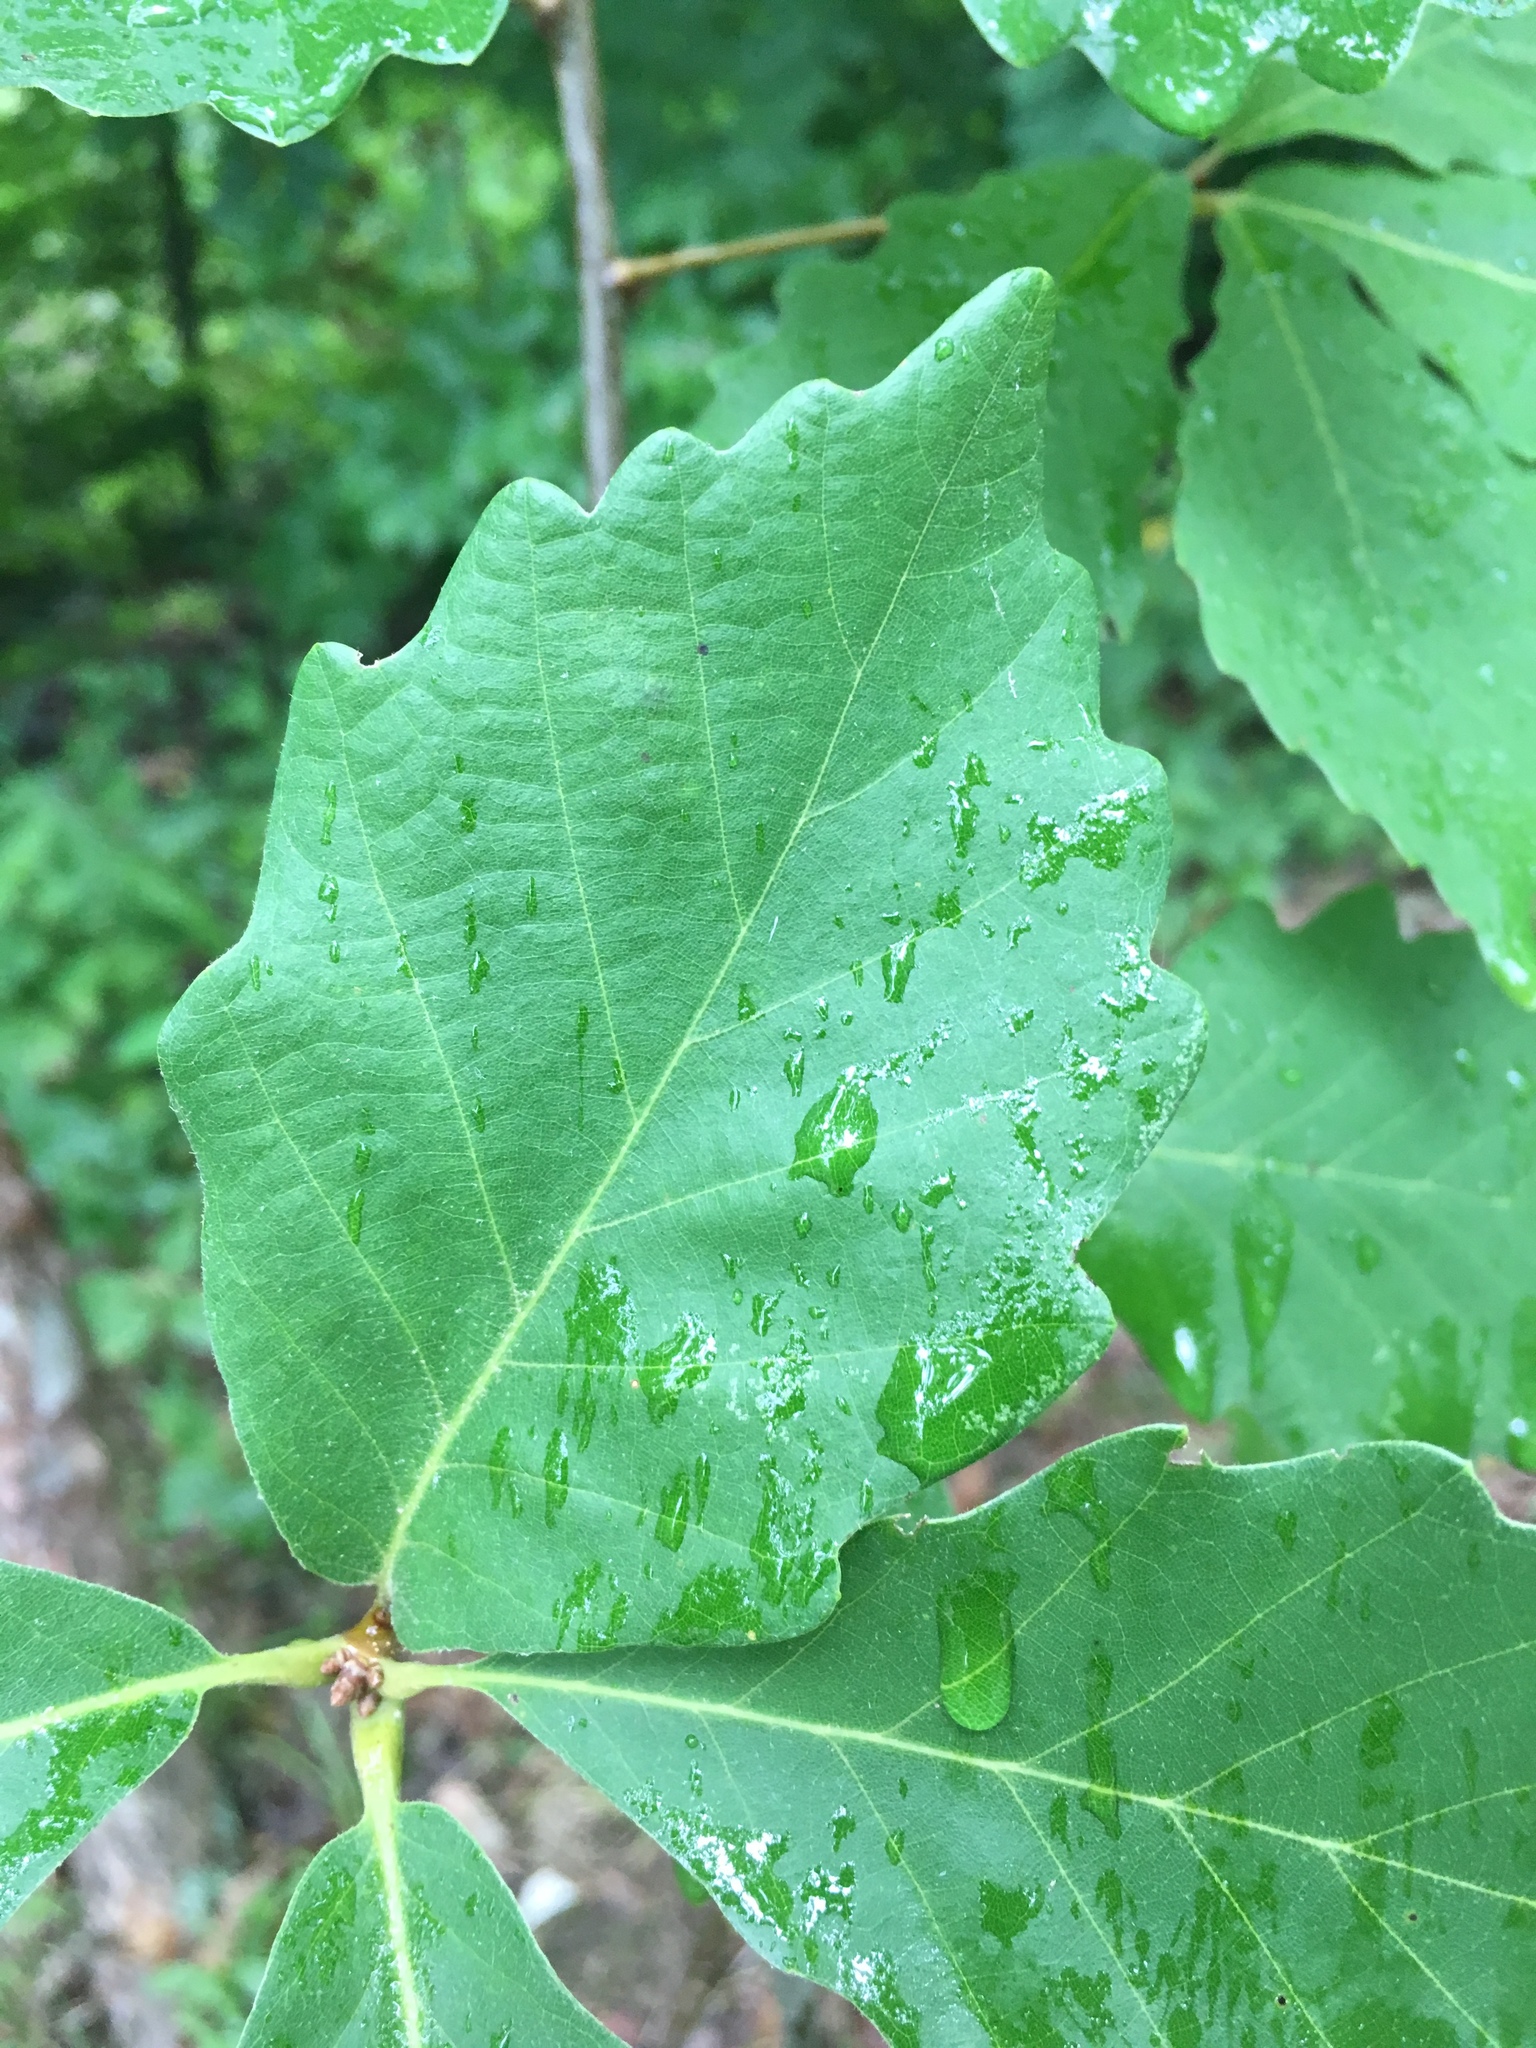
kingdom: Plantae
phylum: Tracheophyta
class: Magnoliopsida
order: Fagales
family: Fagaceae
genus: Quercus
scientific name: Quercus montana
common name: Chestnut oak
